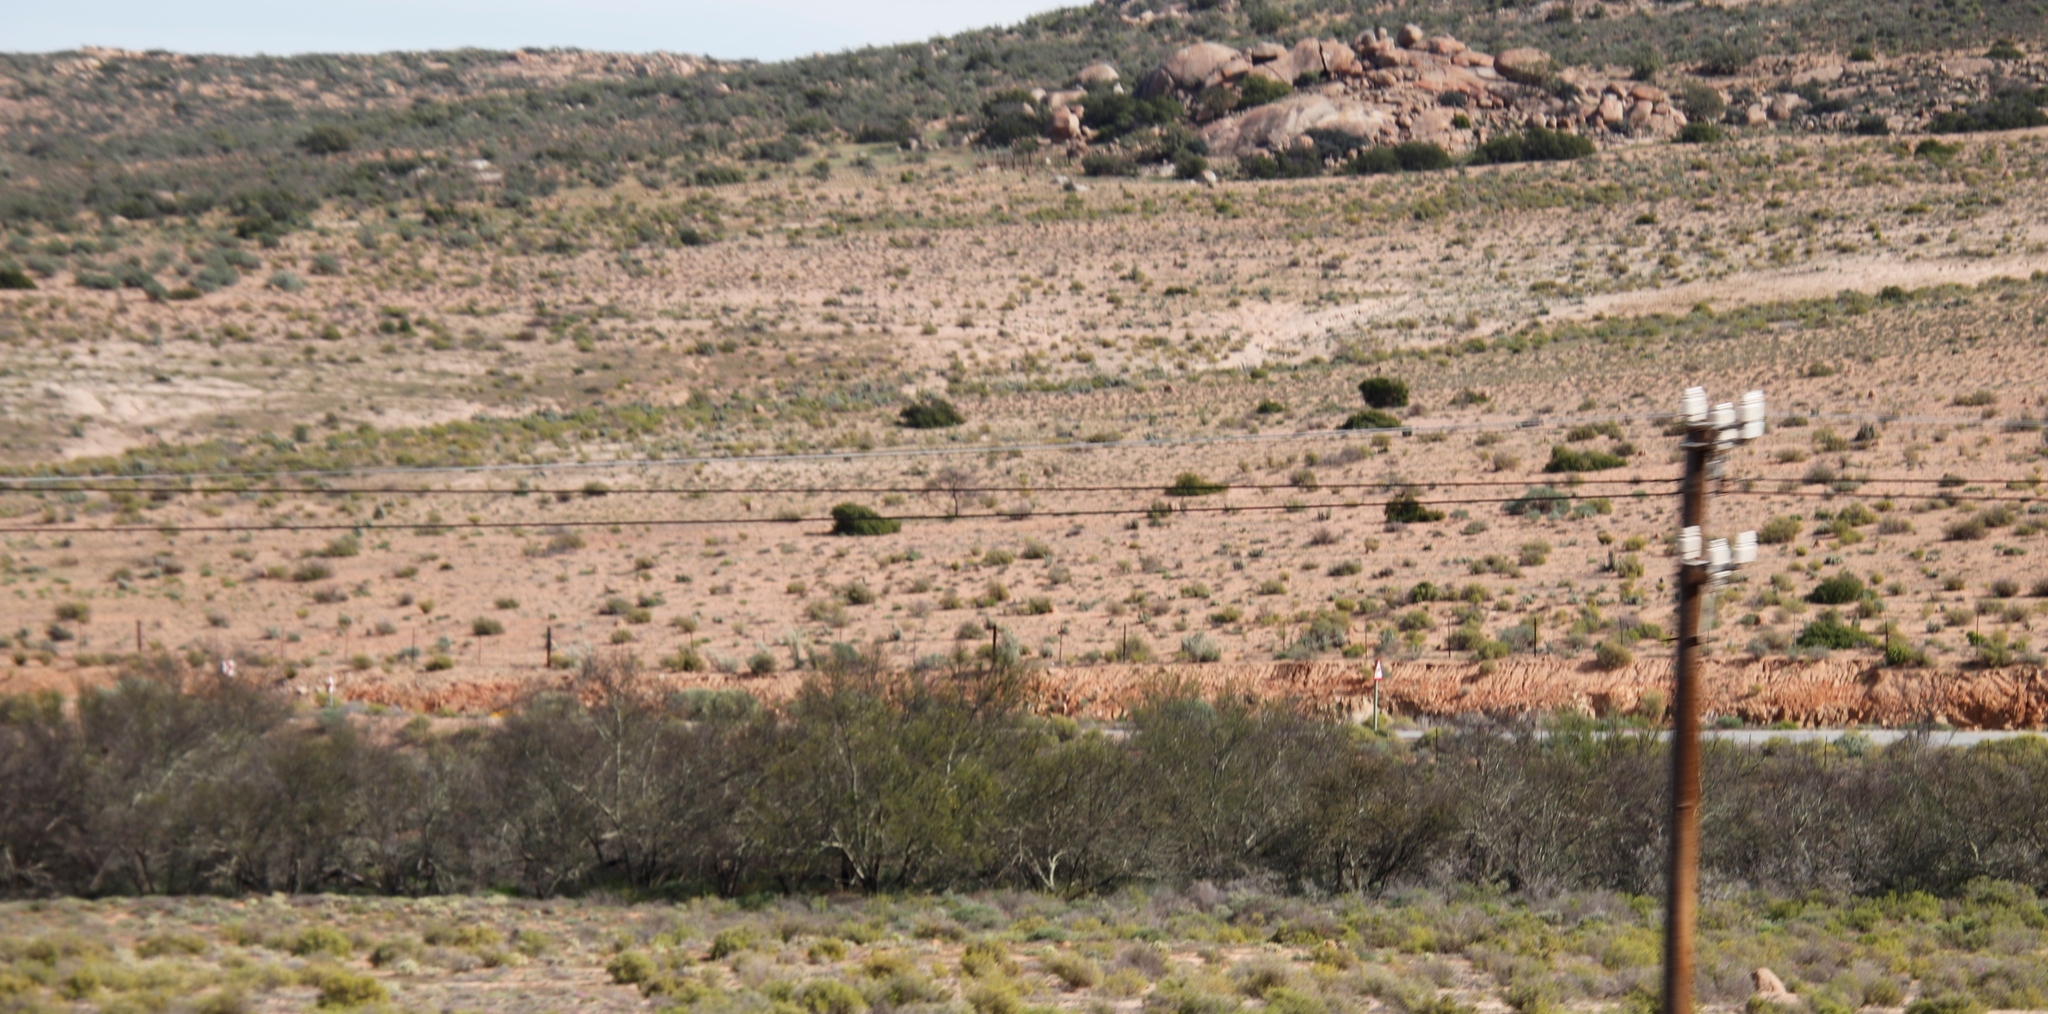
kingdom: Plantae
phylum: Tracheophyta
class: Magnoliopsida
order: Fabales
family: Fabaceae
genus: Vachellia
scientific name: Vachellia karroo
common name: Sweet thorn
